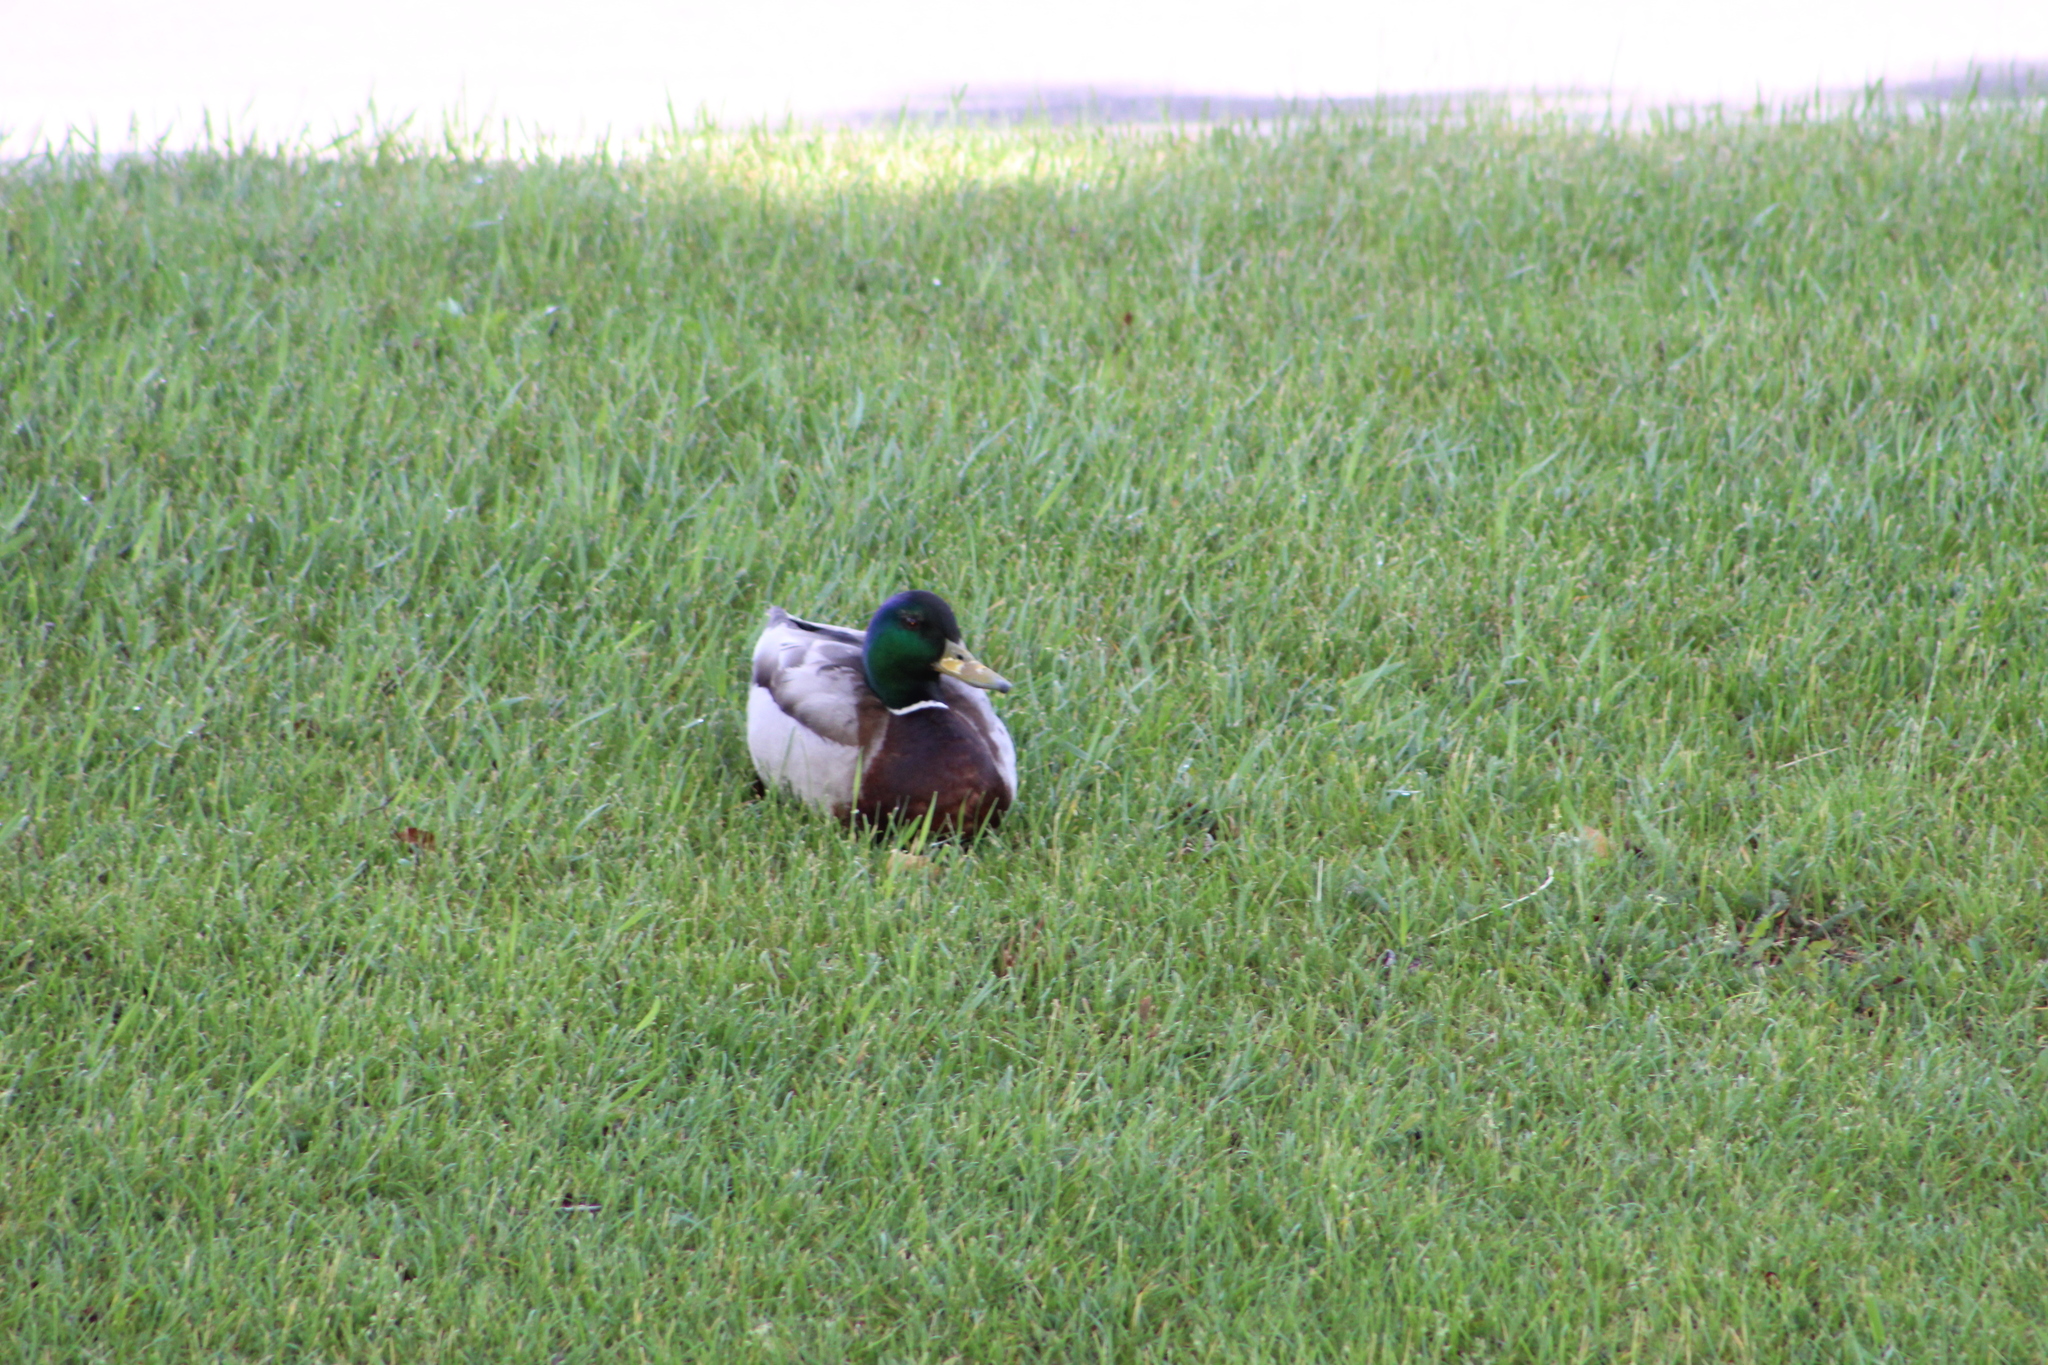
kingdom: Animalia
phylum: Chordata
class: Aves
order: Anseriformes
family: Anatidae
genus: Anas
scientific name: Anas platyrhynchos
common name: Mallard
